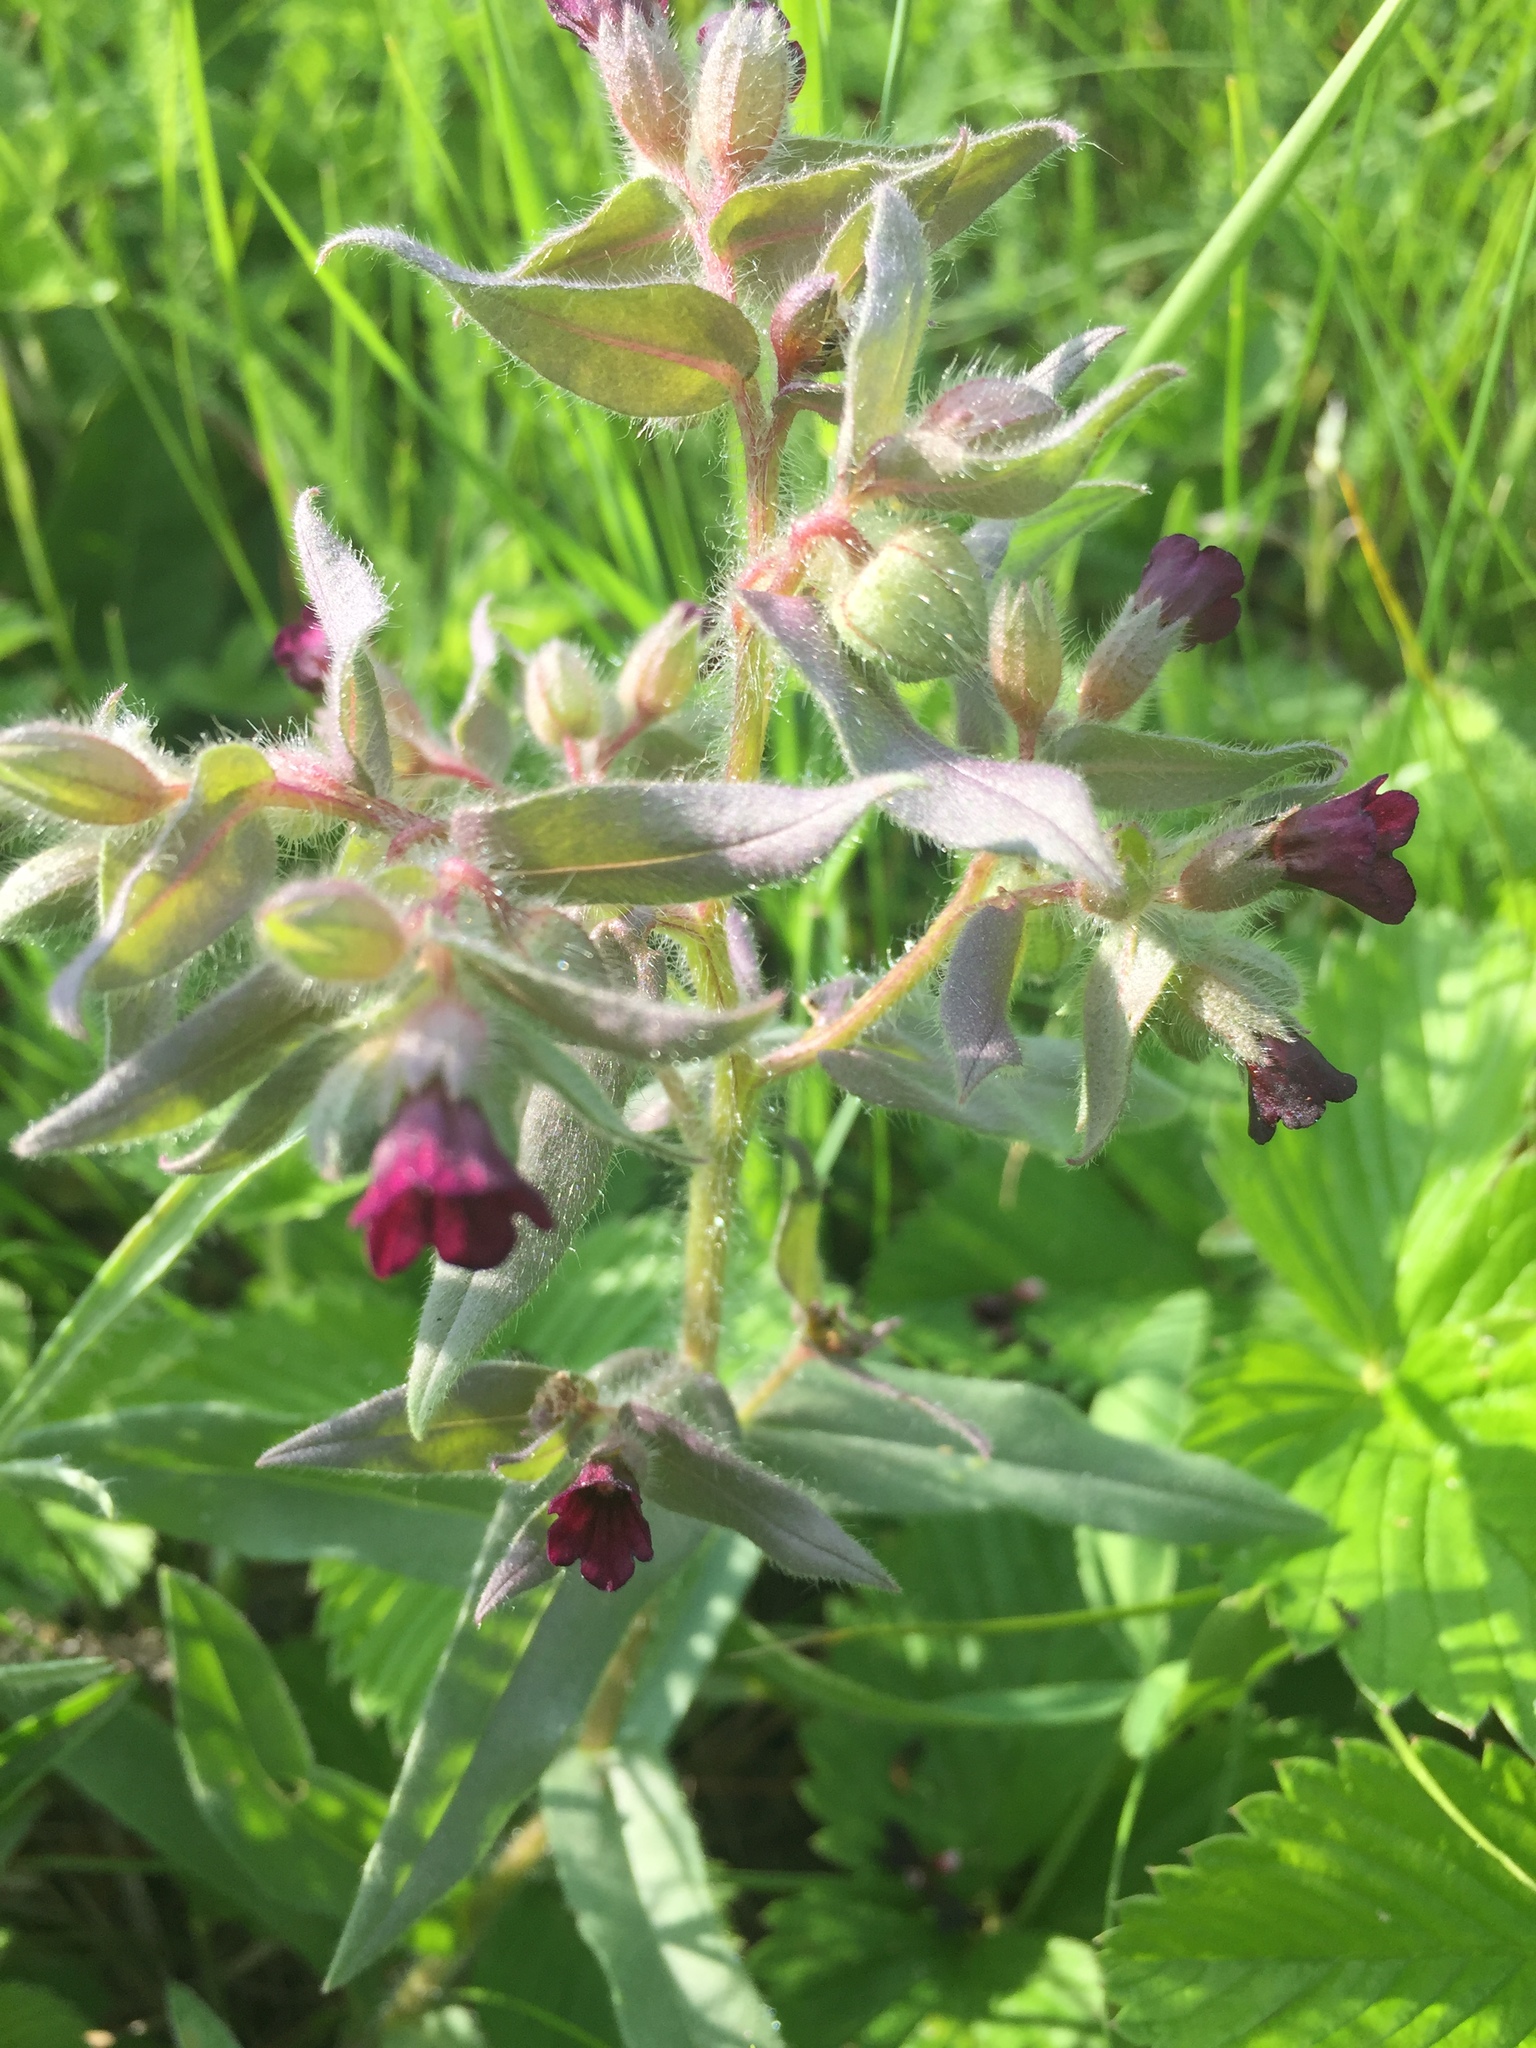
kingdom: Plantae
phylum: Tracheophyta
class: Magnoliopsida
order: Boraginales
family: Boraginaceae
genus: Nonea
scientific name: Nonea pulla
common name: Brown nonea
